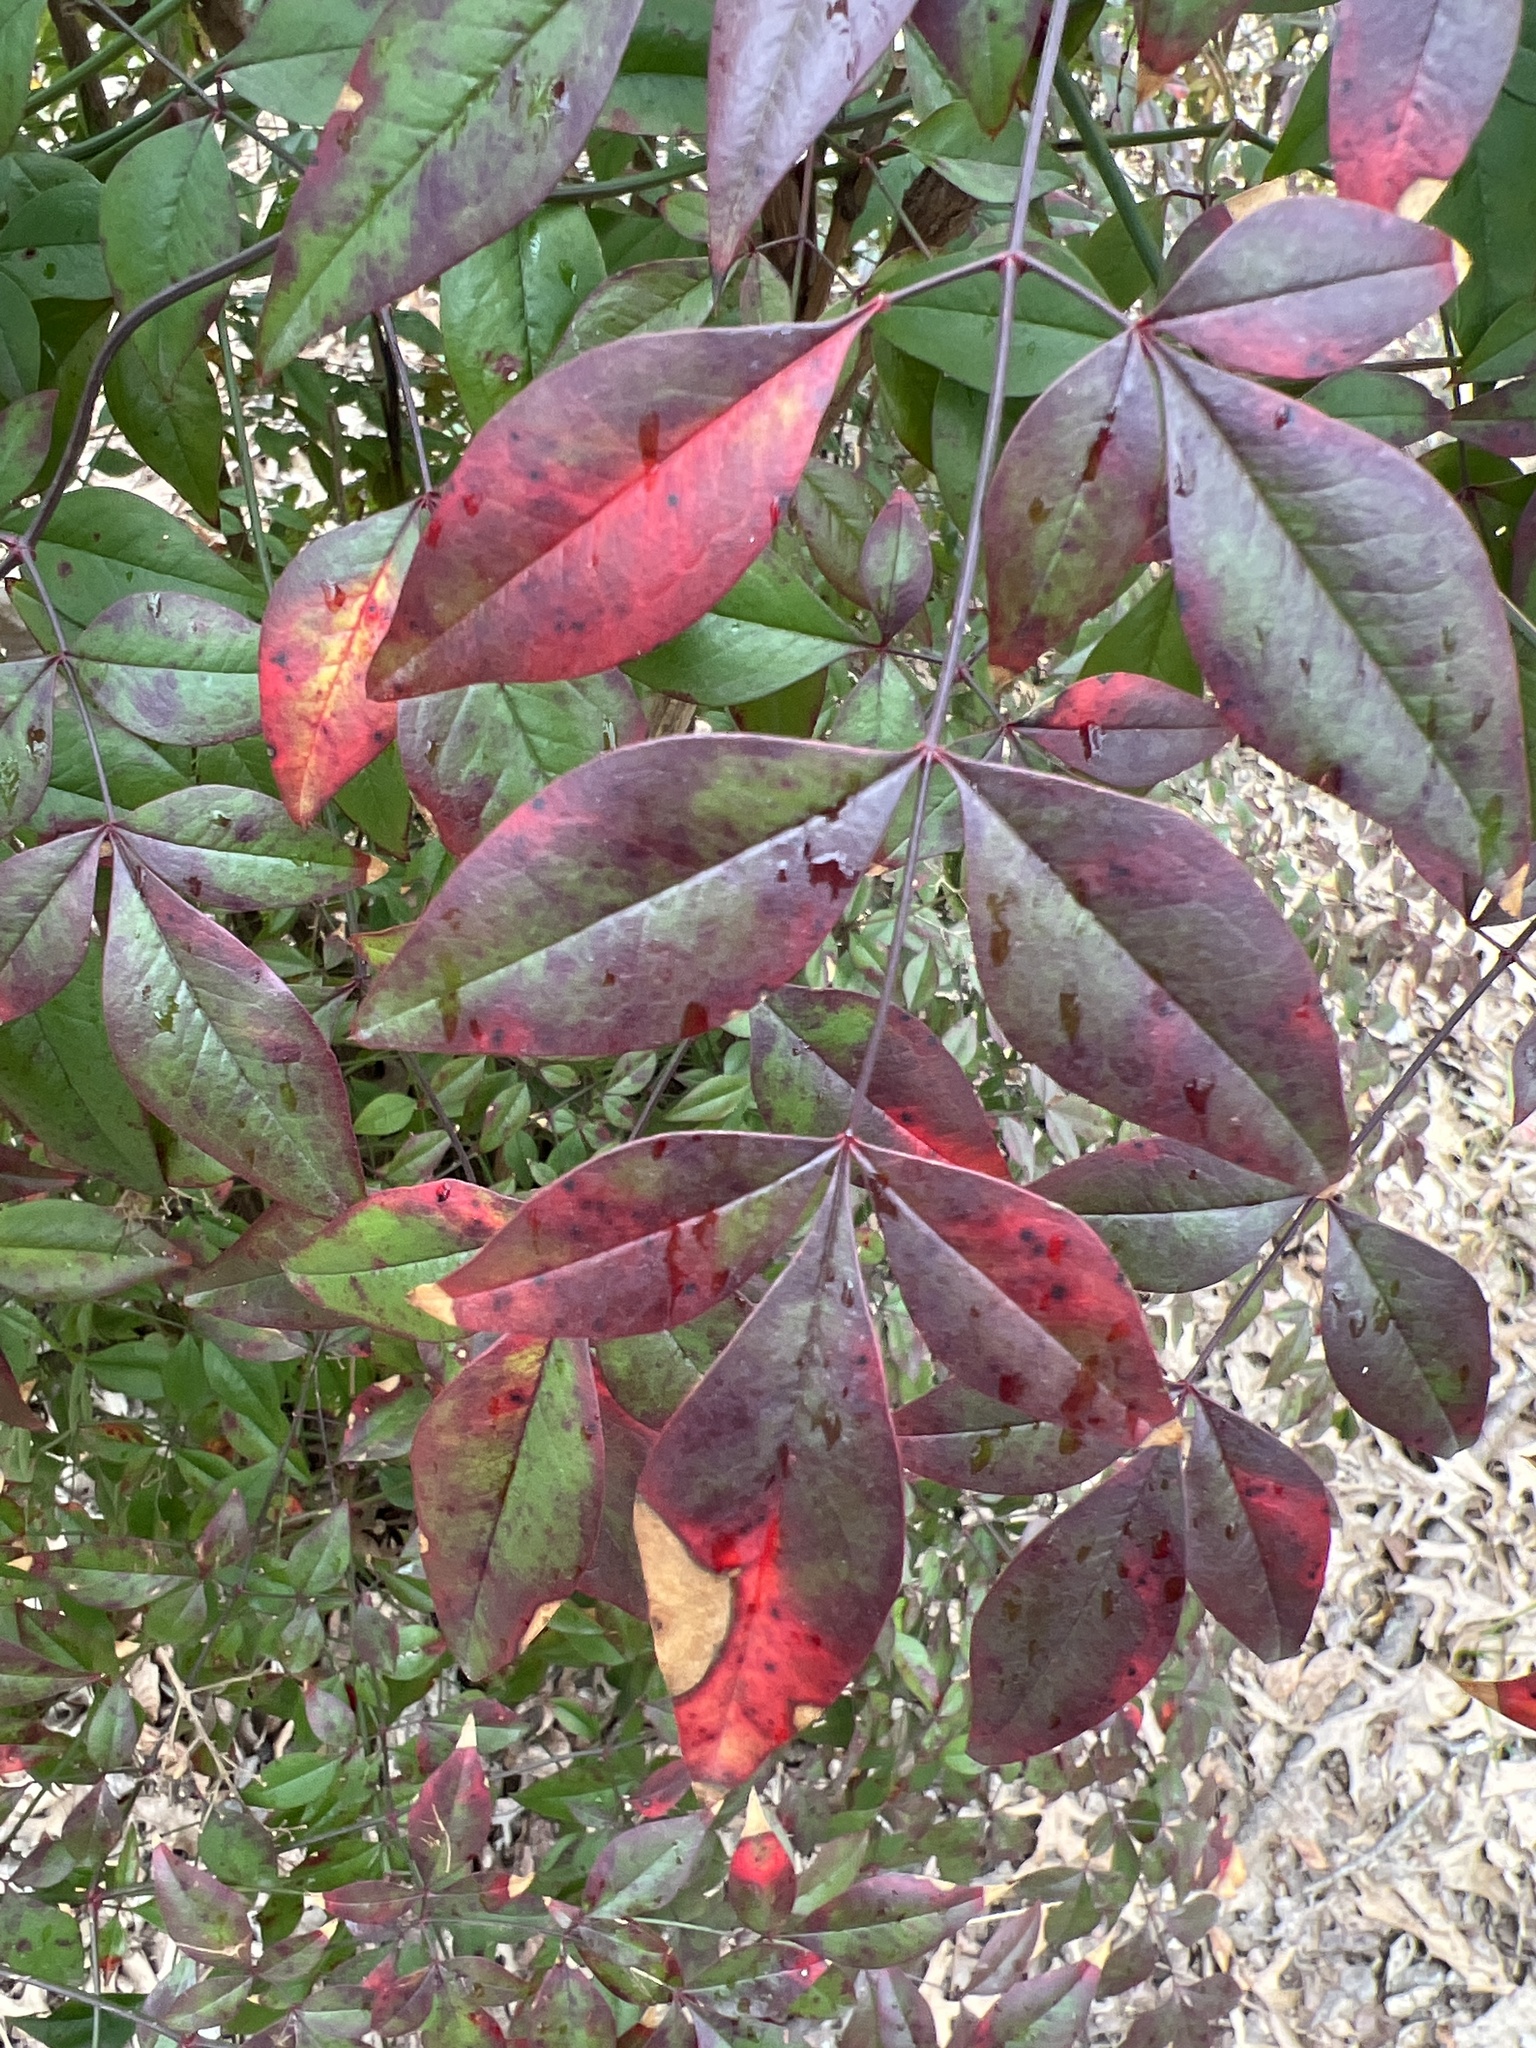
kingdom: Plantae
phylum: Tracheophyta
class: Magnoliopsida
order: Ranunculales
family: Berberidaceae
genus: Nandina
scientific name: Nandina domestica
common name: Sacred bamboo
